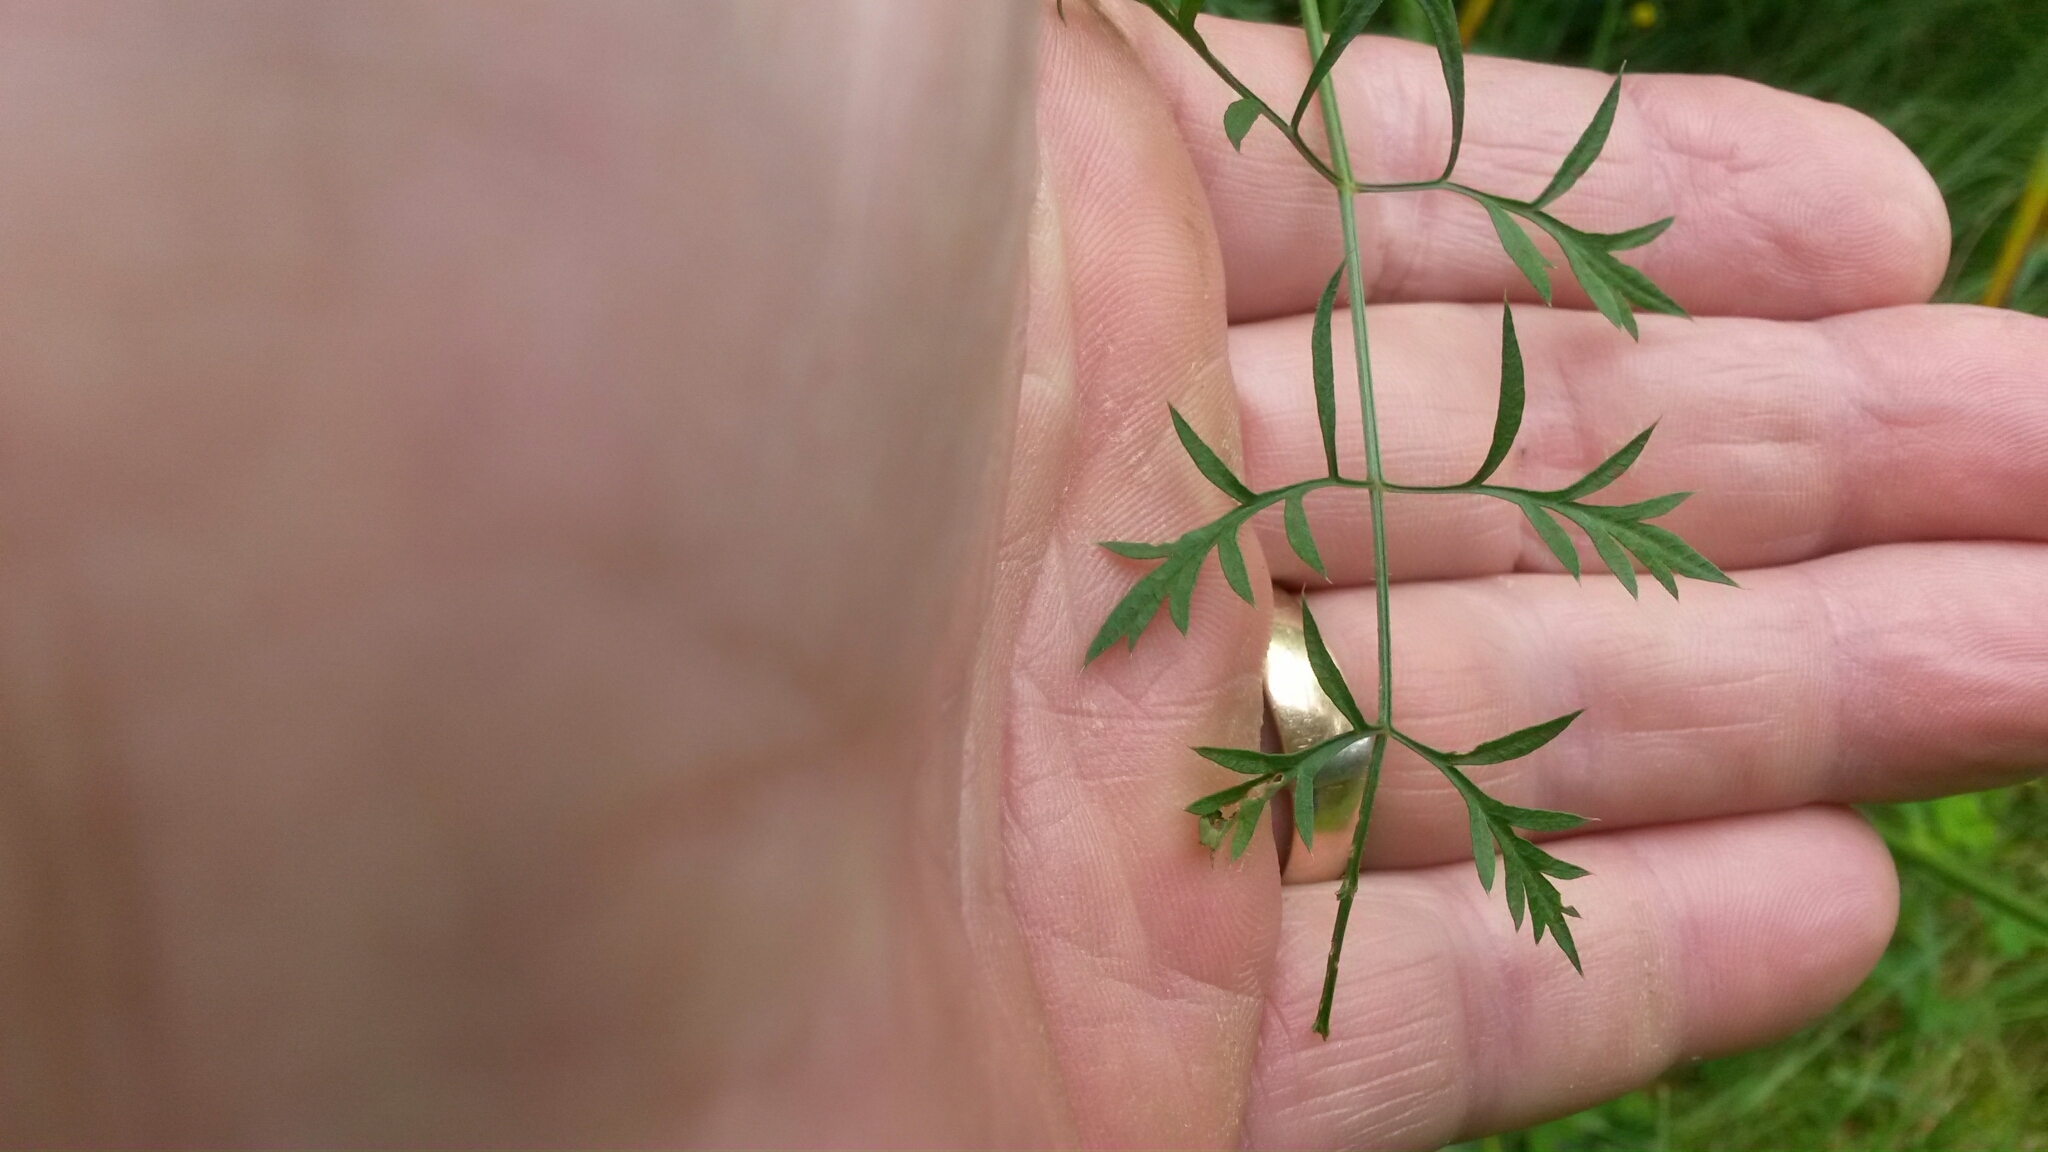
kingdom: Plantae
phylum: Tracheophyta
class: Magnoliopsida
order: Apiales
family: Apiaceae
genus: Daucus
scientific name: Daucus carota
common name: Wild carrot
